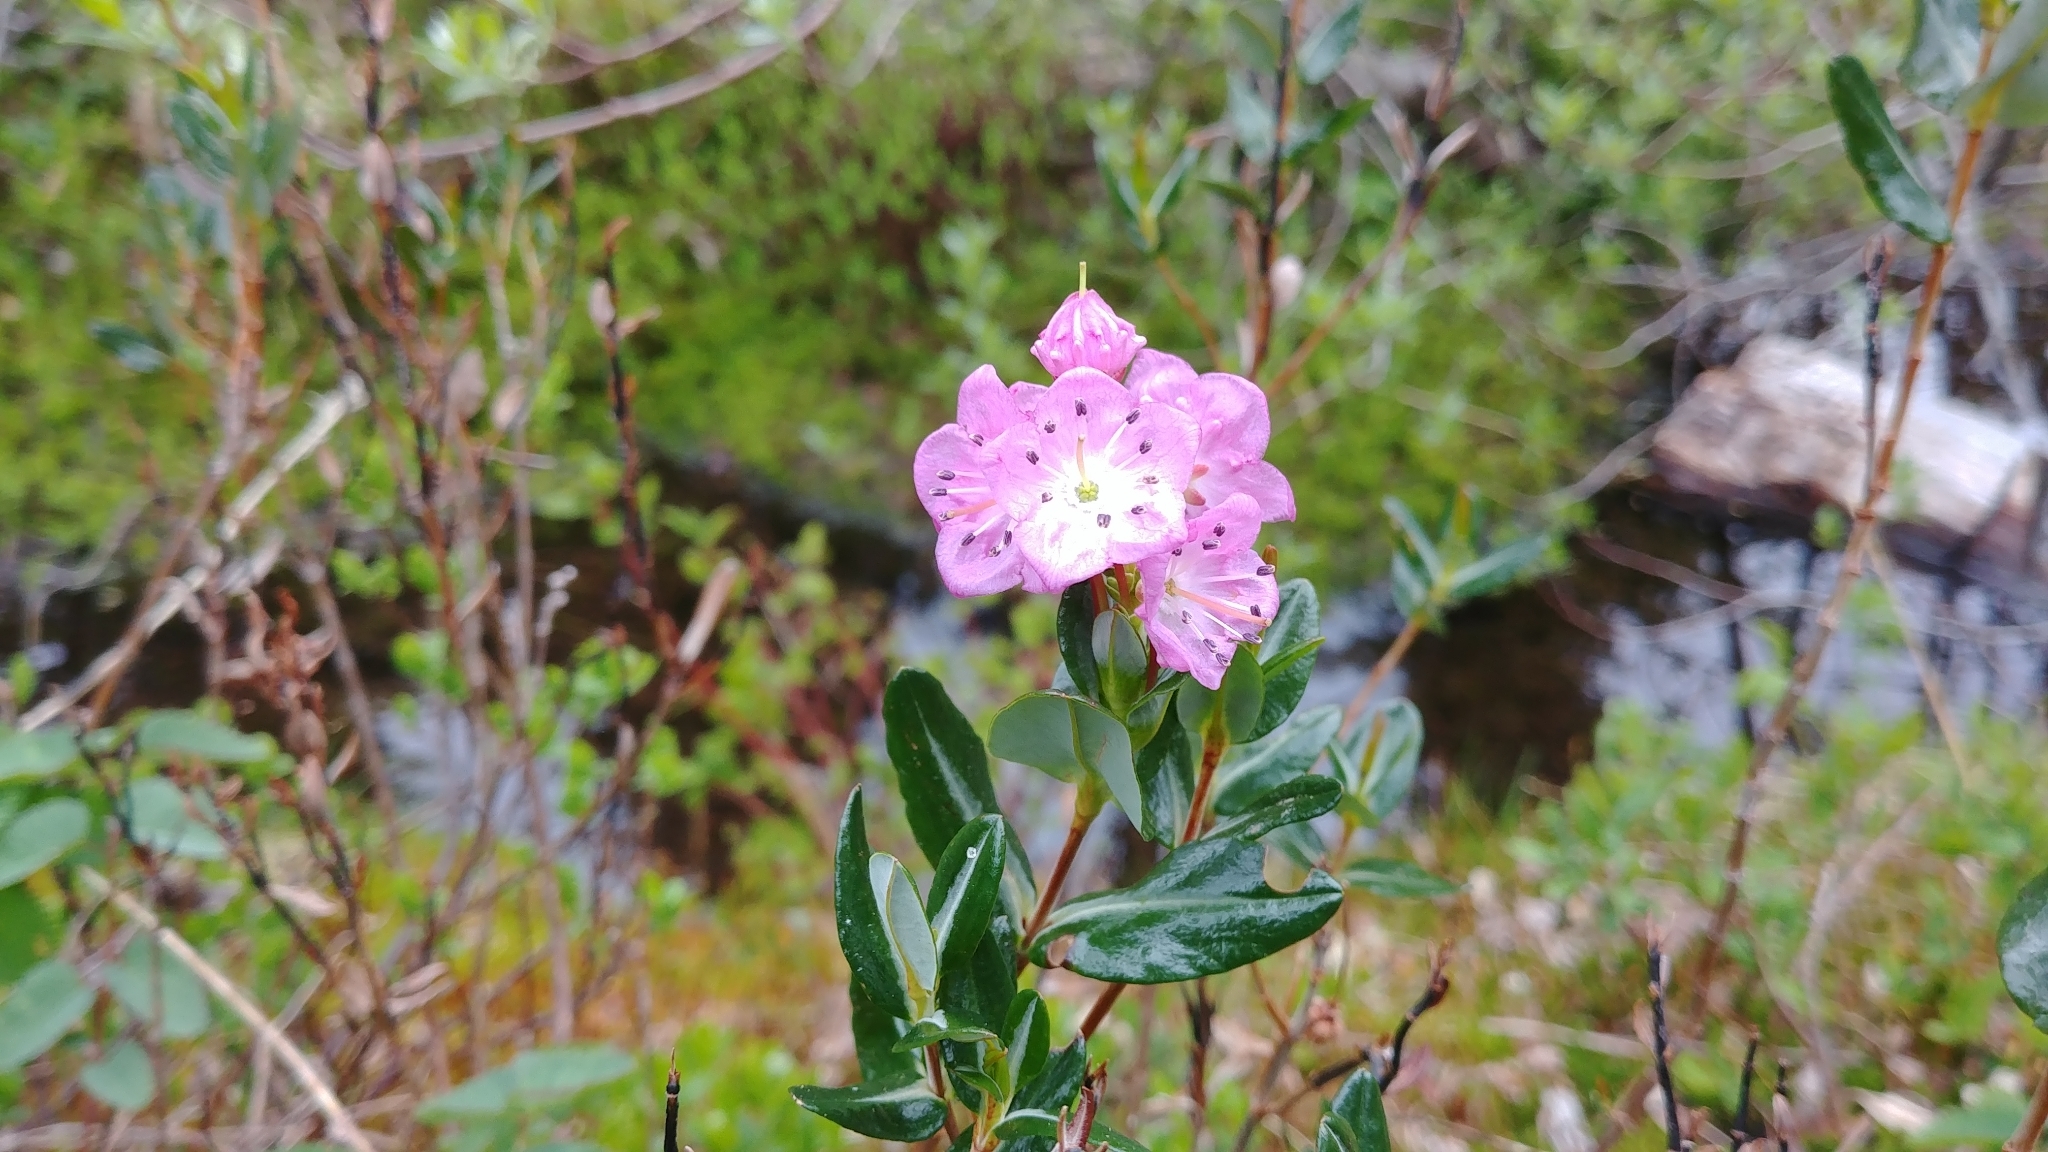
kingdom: Plantae
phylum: Tracheophyta
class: Magnoliopsida
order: Ericales
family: Ericaceae
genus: Kalmia
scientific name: Kalmia microphylla
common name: Alpine bog laurel
